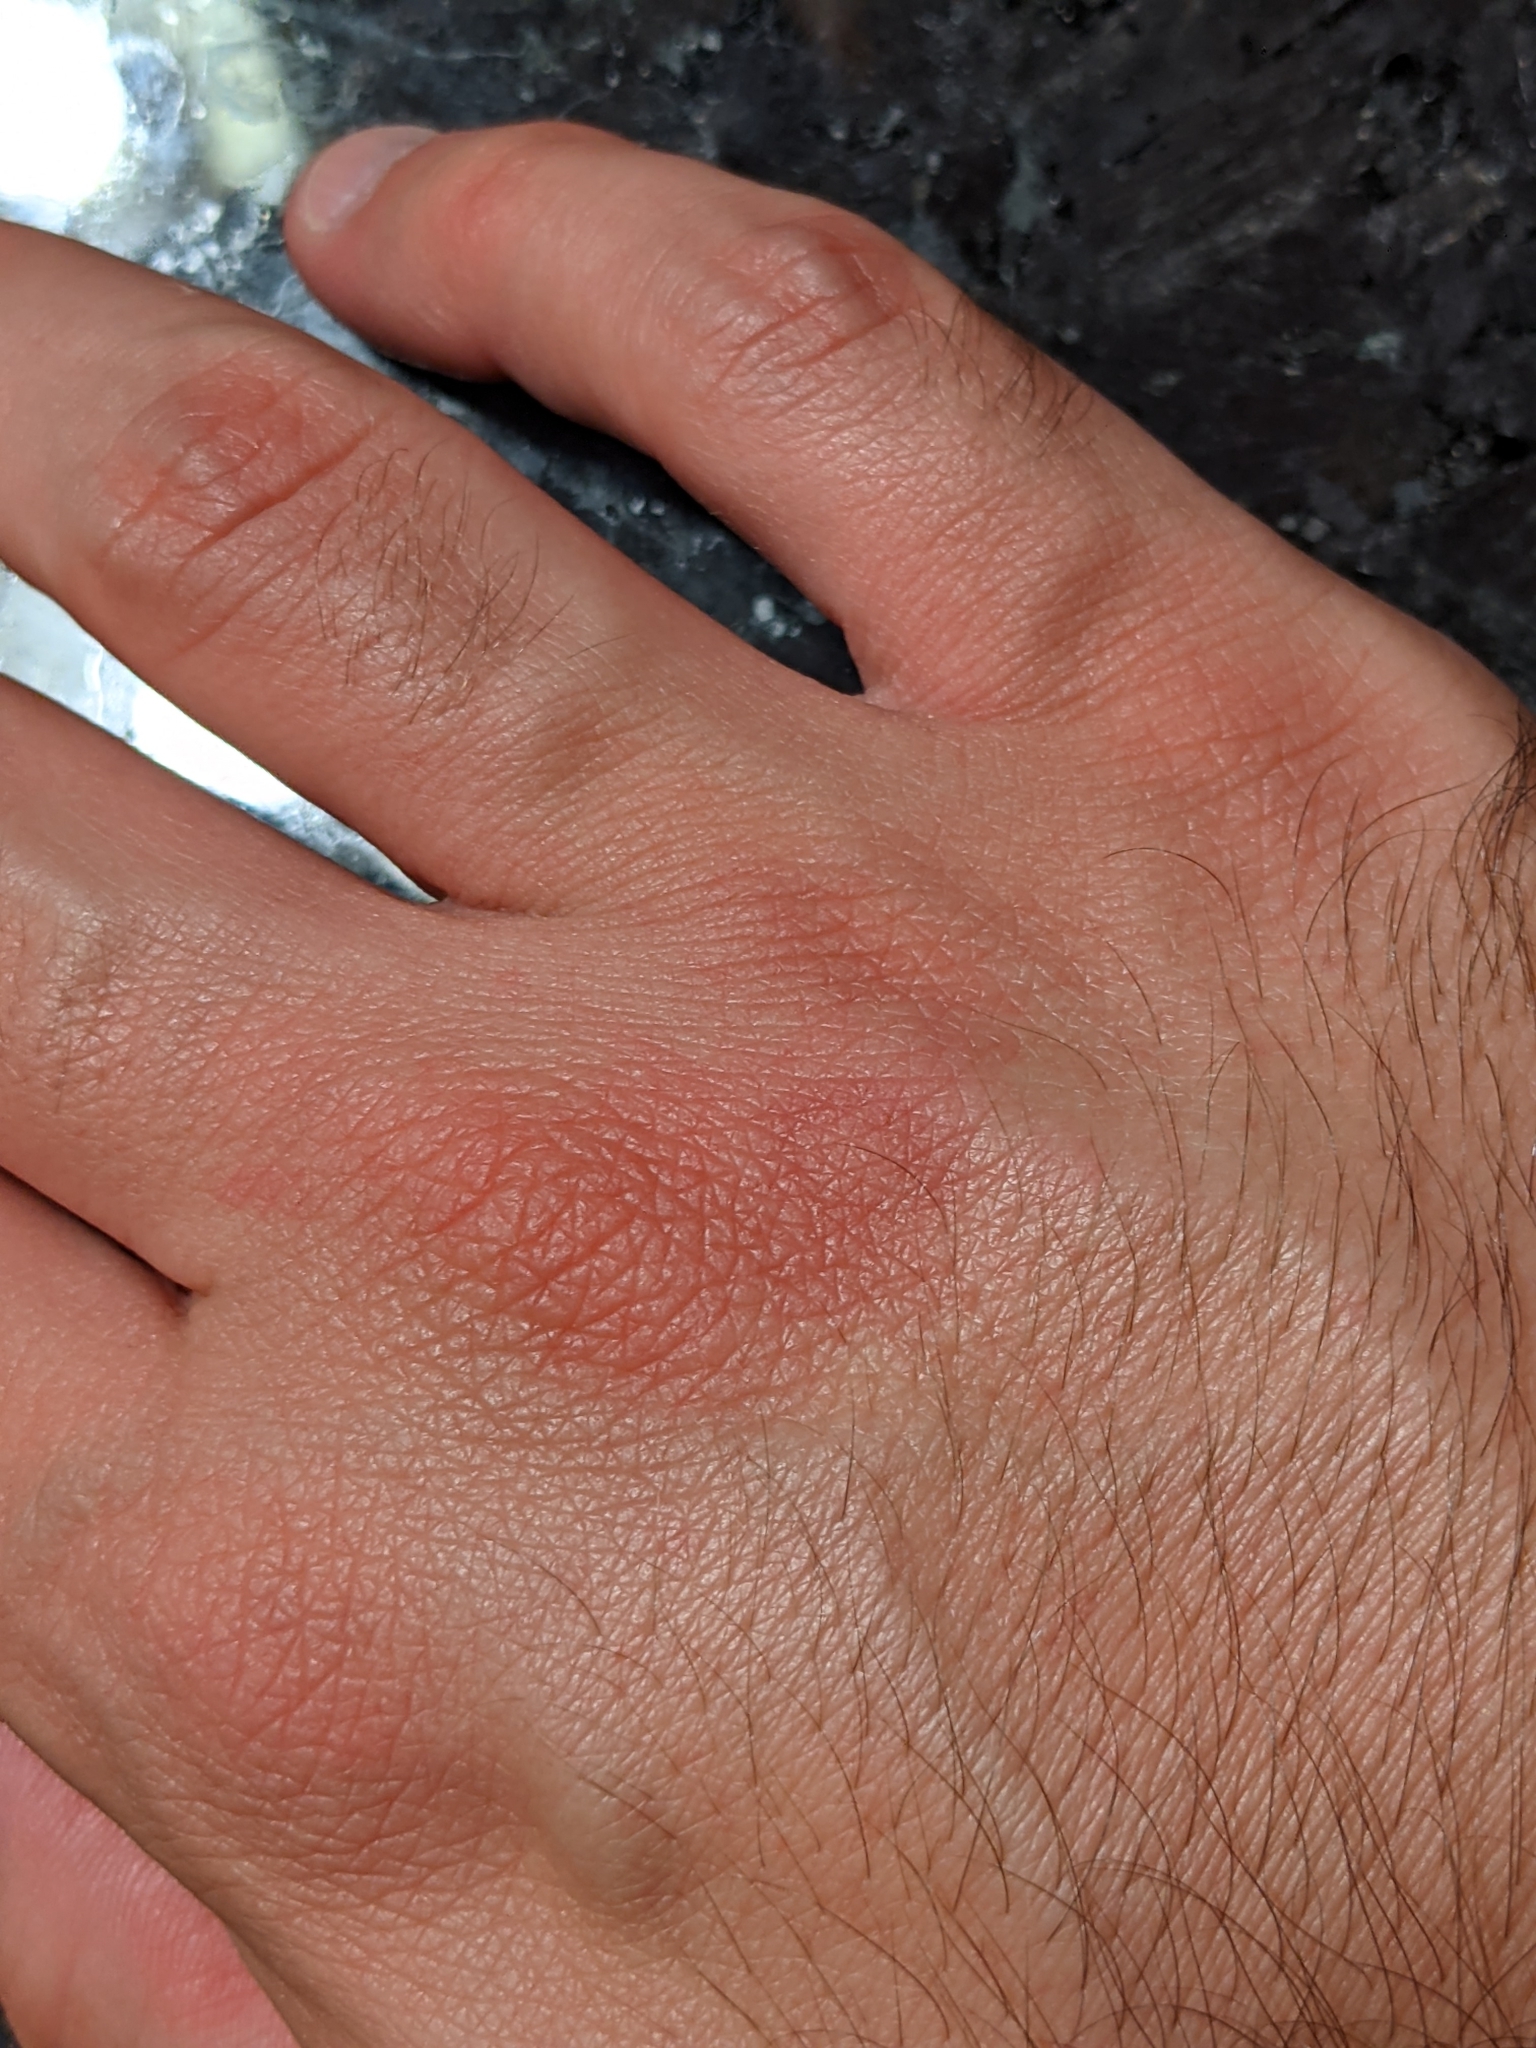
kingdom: Animalia
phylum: Arthropoda
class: Arachnida
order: Scorpiones
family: Vaejovidae
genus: Vaejovis
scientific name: Vaejovis carolinianus
